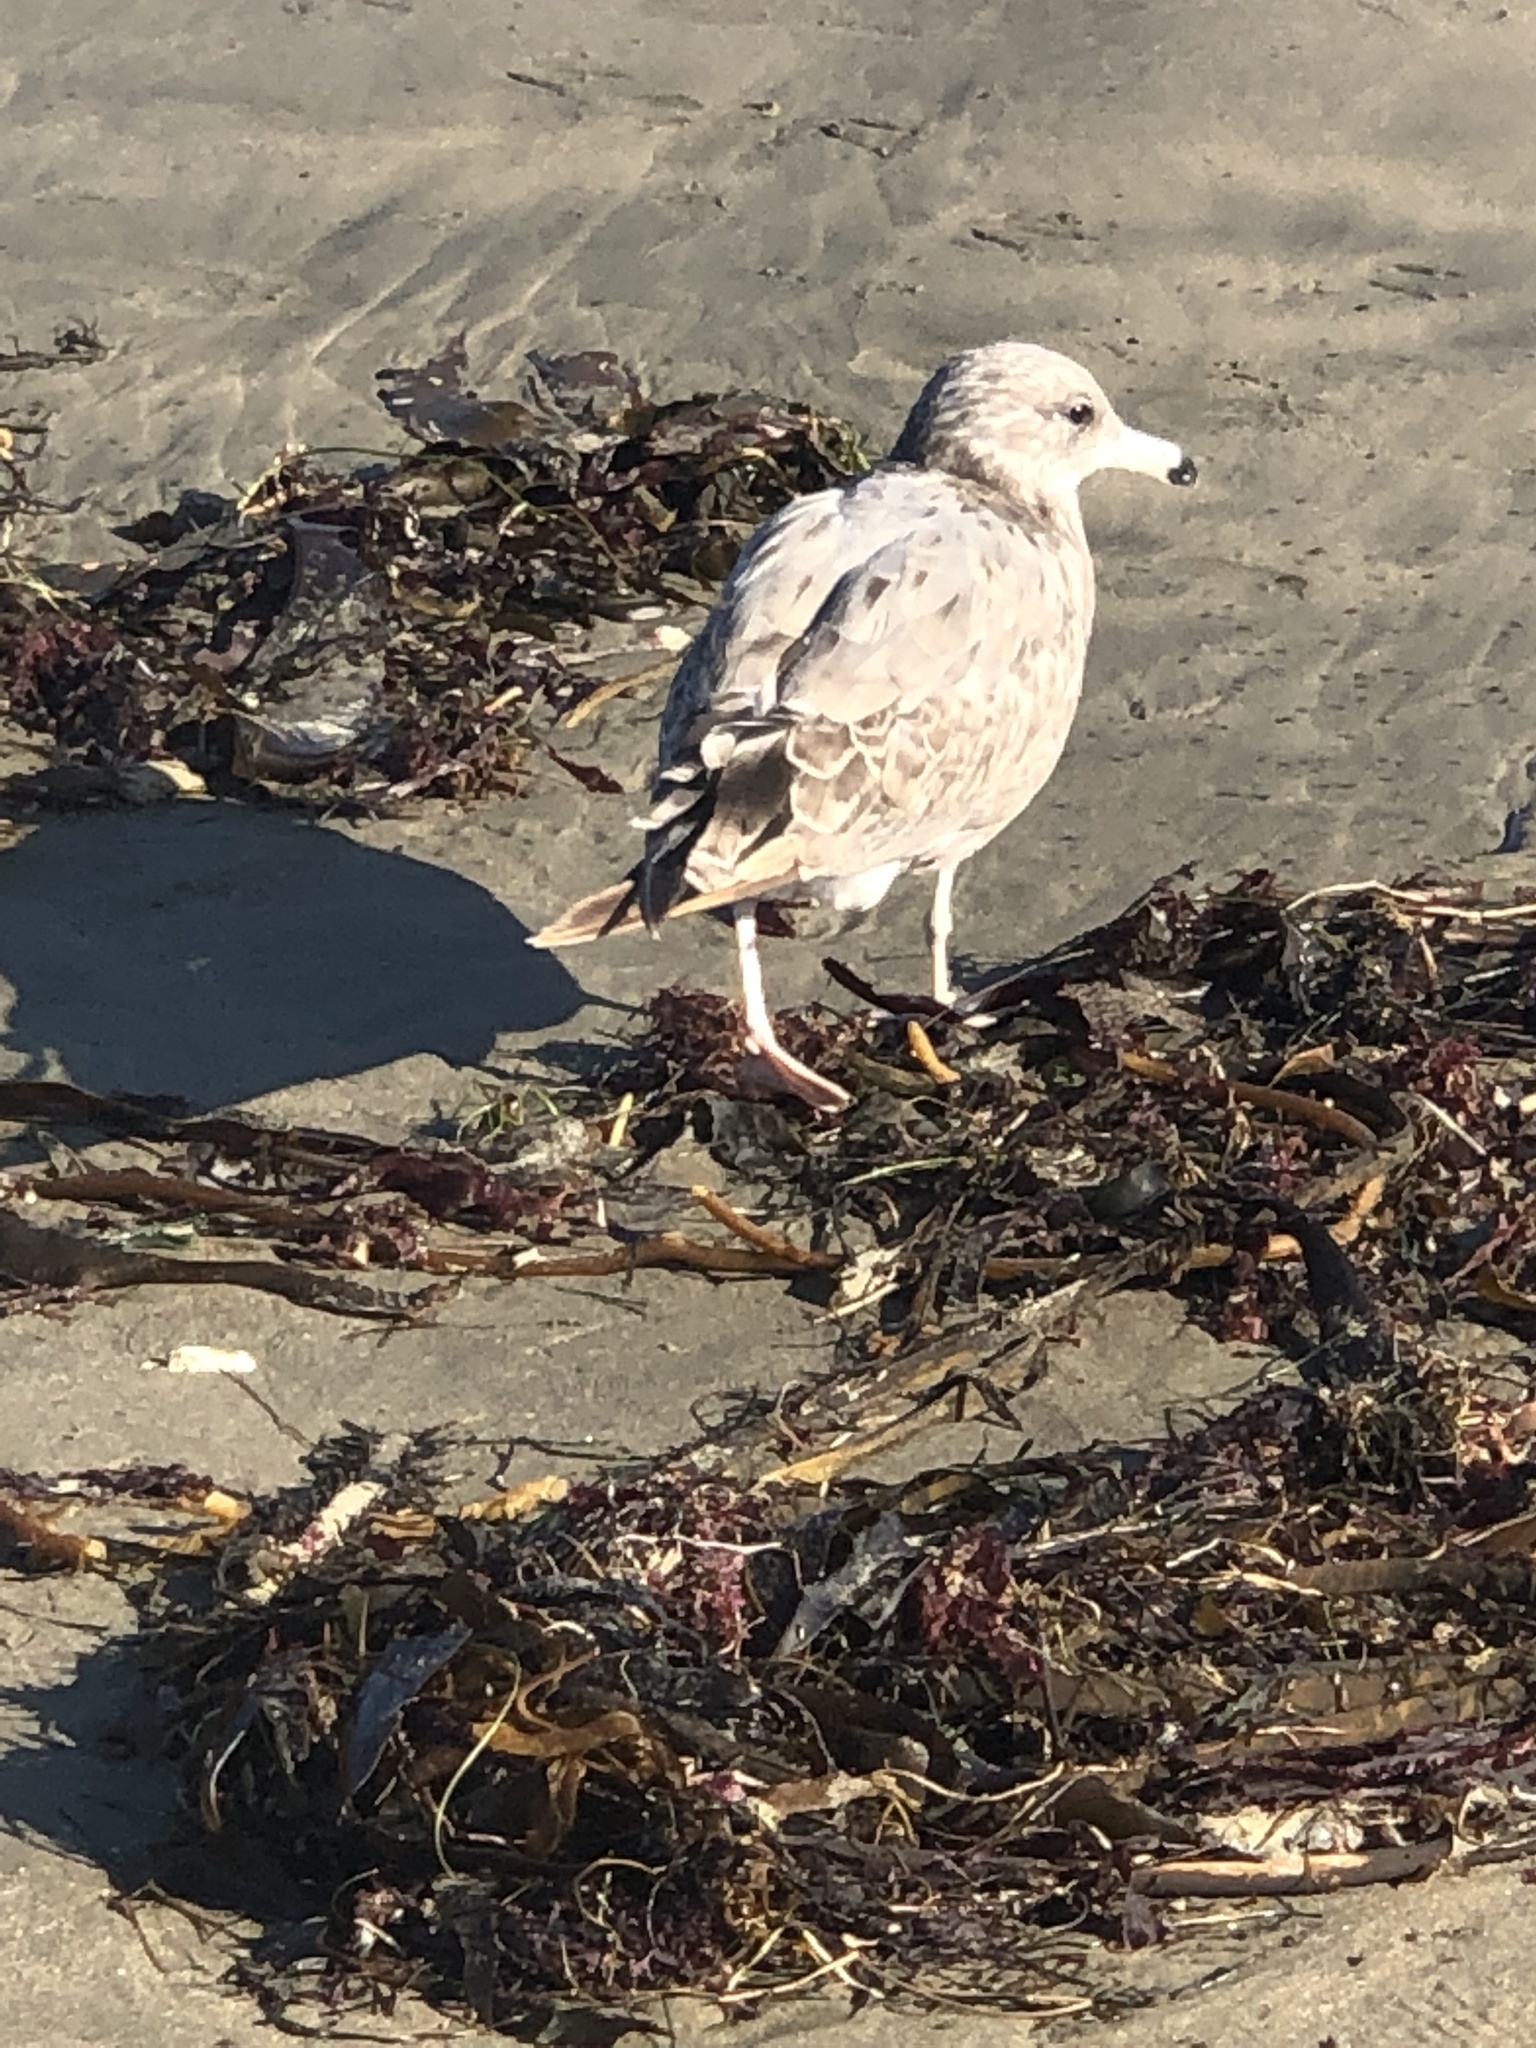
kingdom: Animalia
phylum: Chordata
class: Aves
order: Charadriiformes
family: Laridae
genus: Larus
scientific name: Larus californicus
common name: California gull
